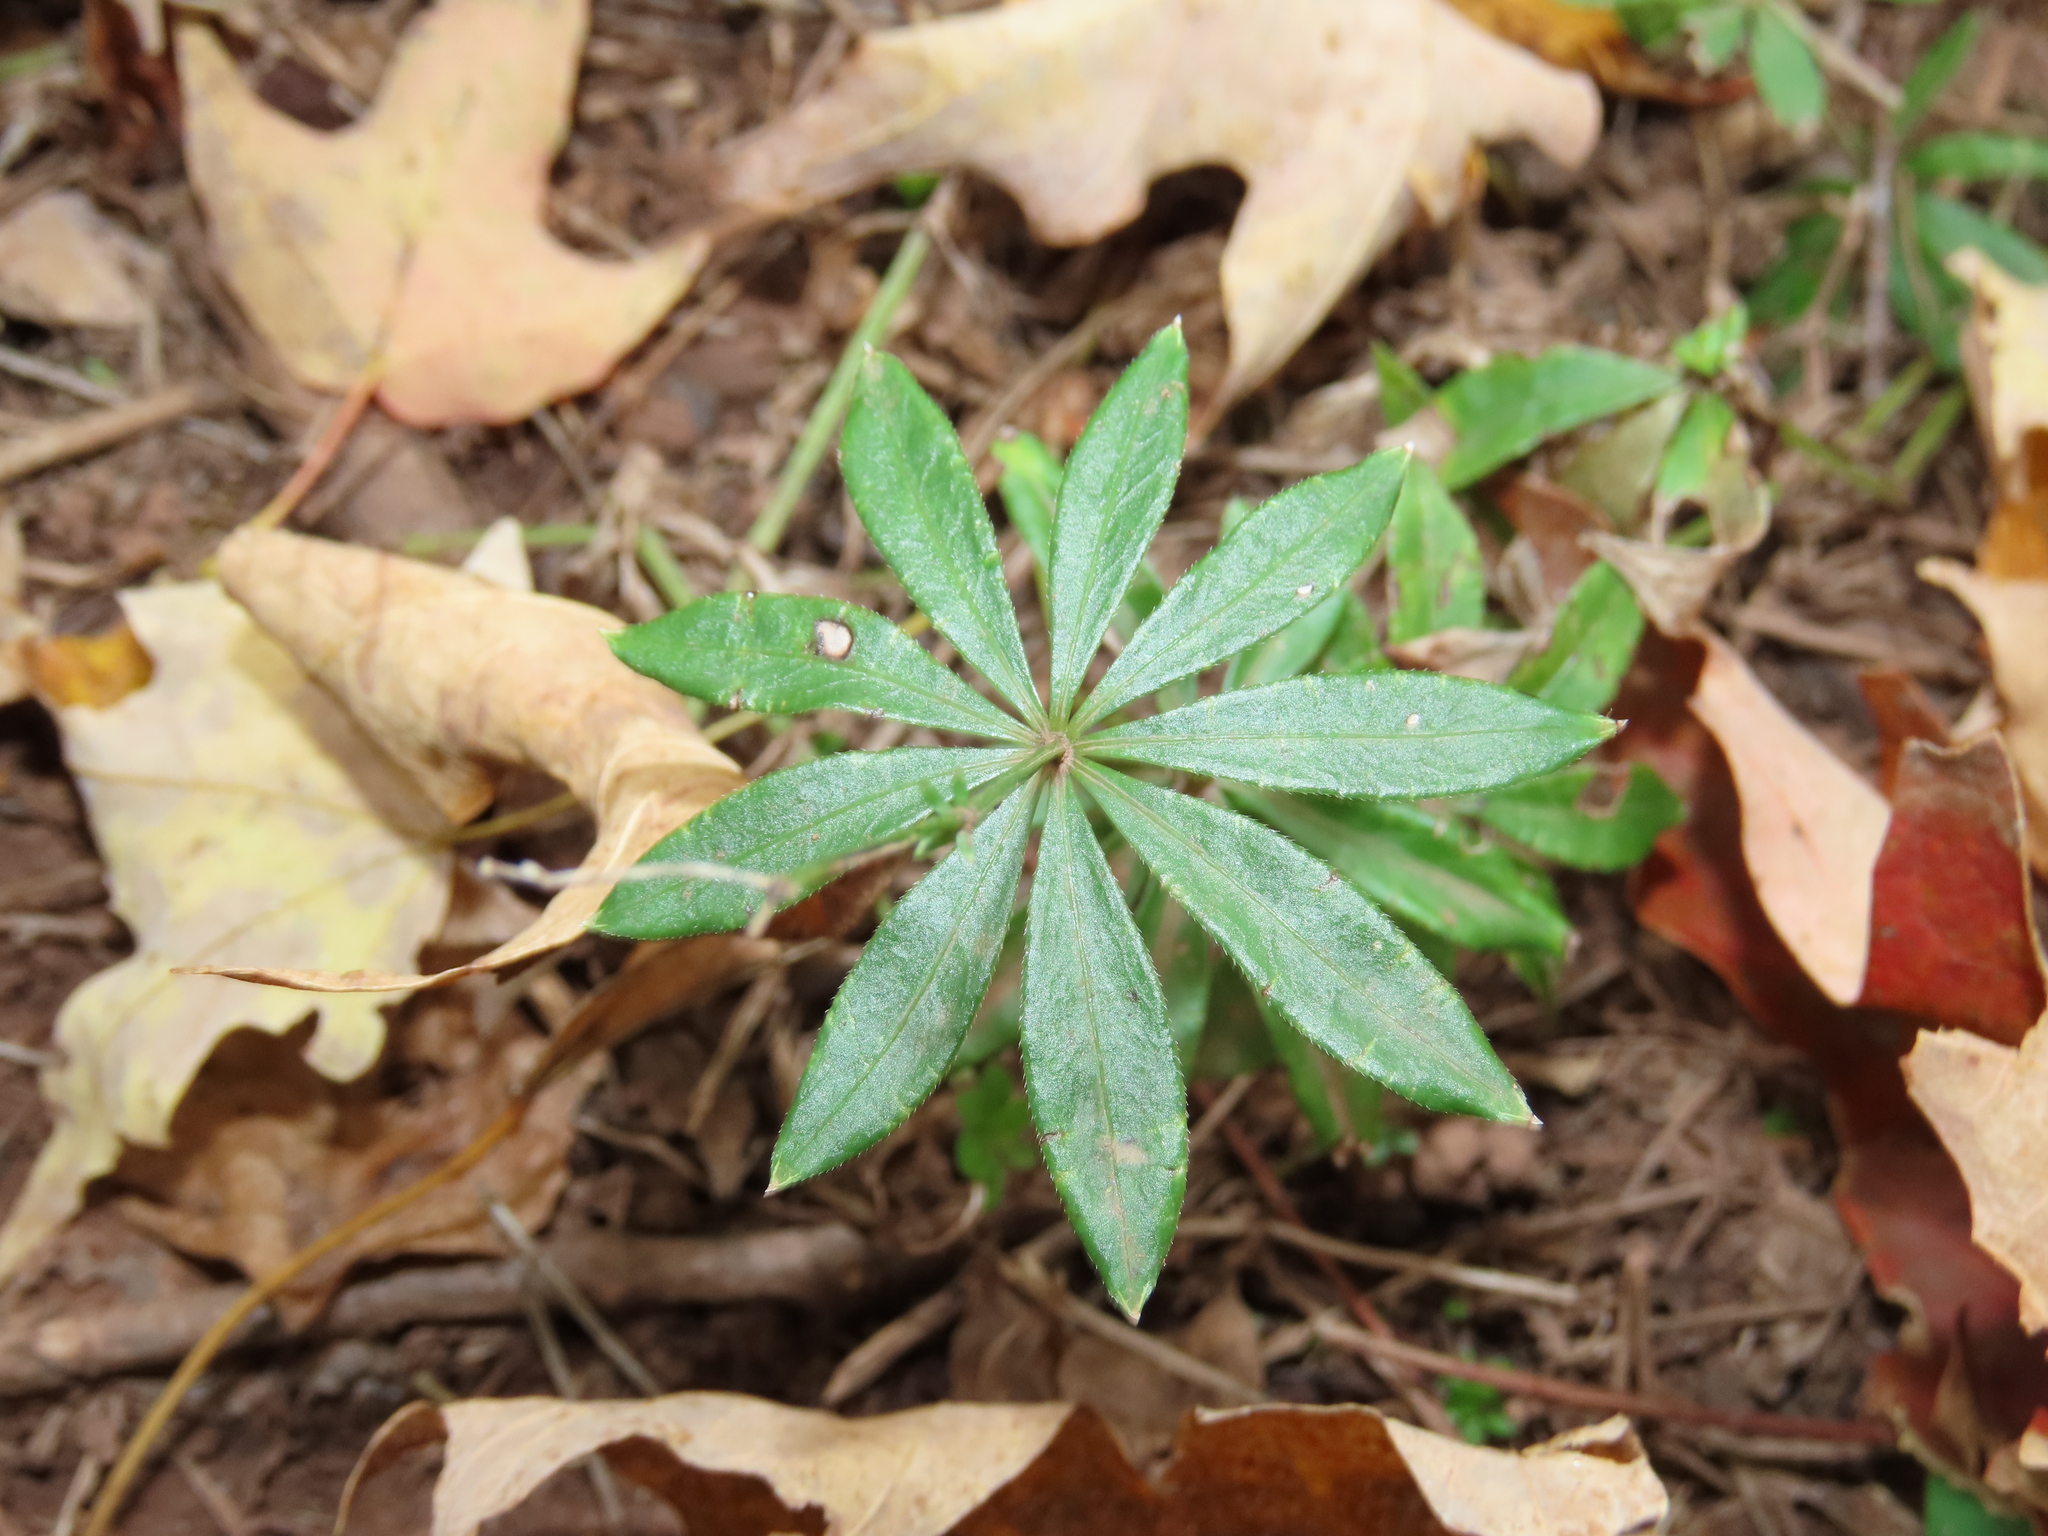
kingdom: Plantae
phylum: Tracheophyta
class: Magnoliopsida
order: Gentianales
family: Rubiaceae
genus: Galium
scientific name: Galium odoratum
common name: Sweet woodruff
